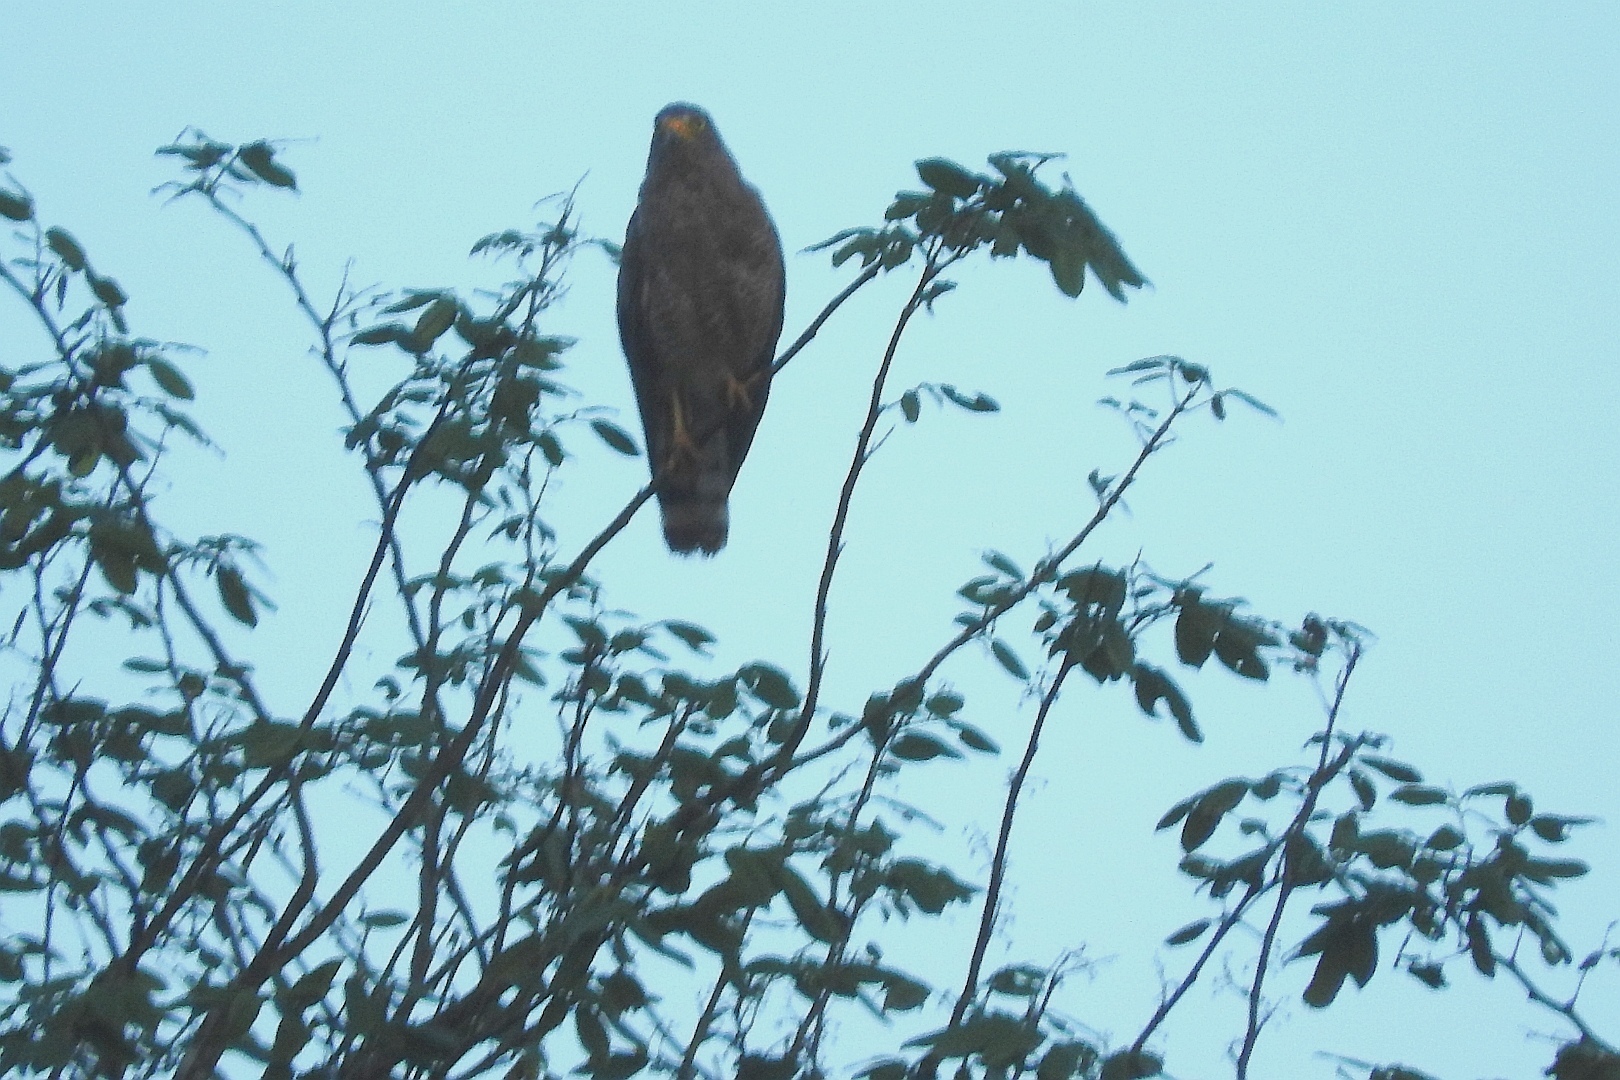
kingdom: Animalia
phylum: Chordata
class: Aves
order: Accipitriformes
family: Accipitridae
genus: Rupornis
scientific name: Rupornis magnirostris
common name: Roadside hawk
